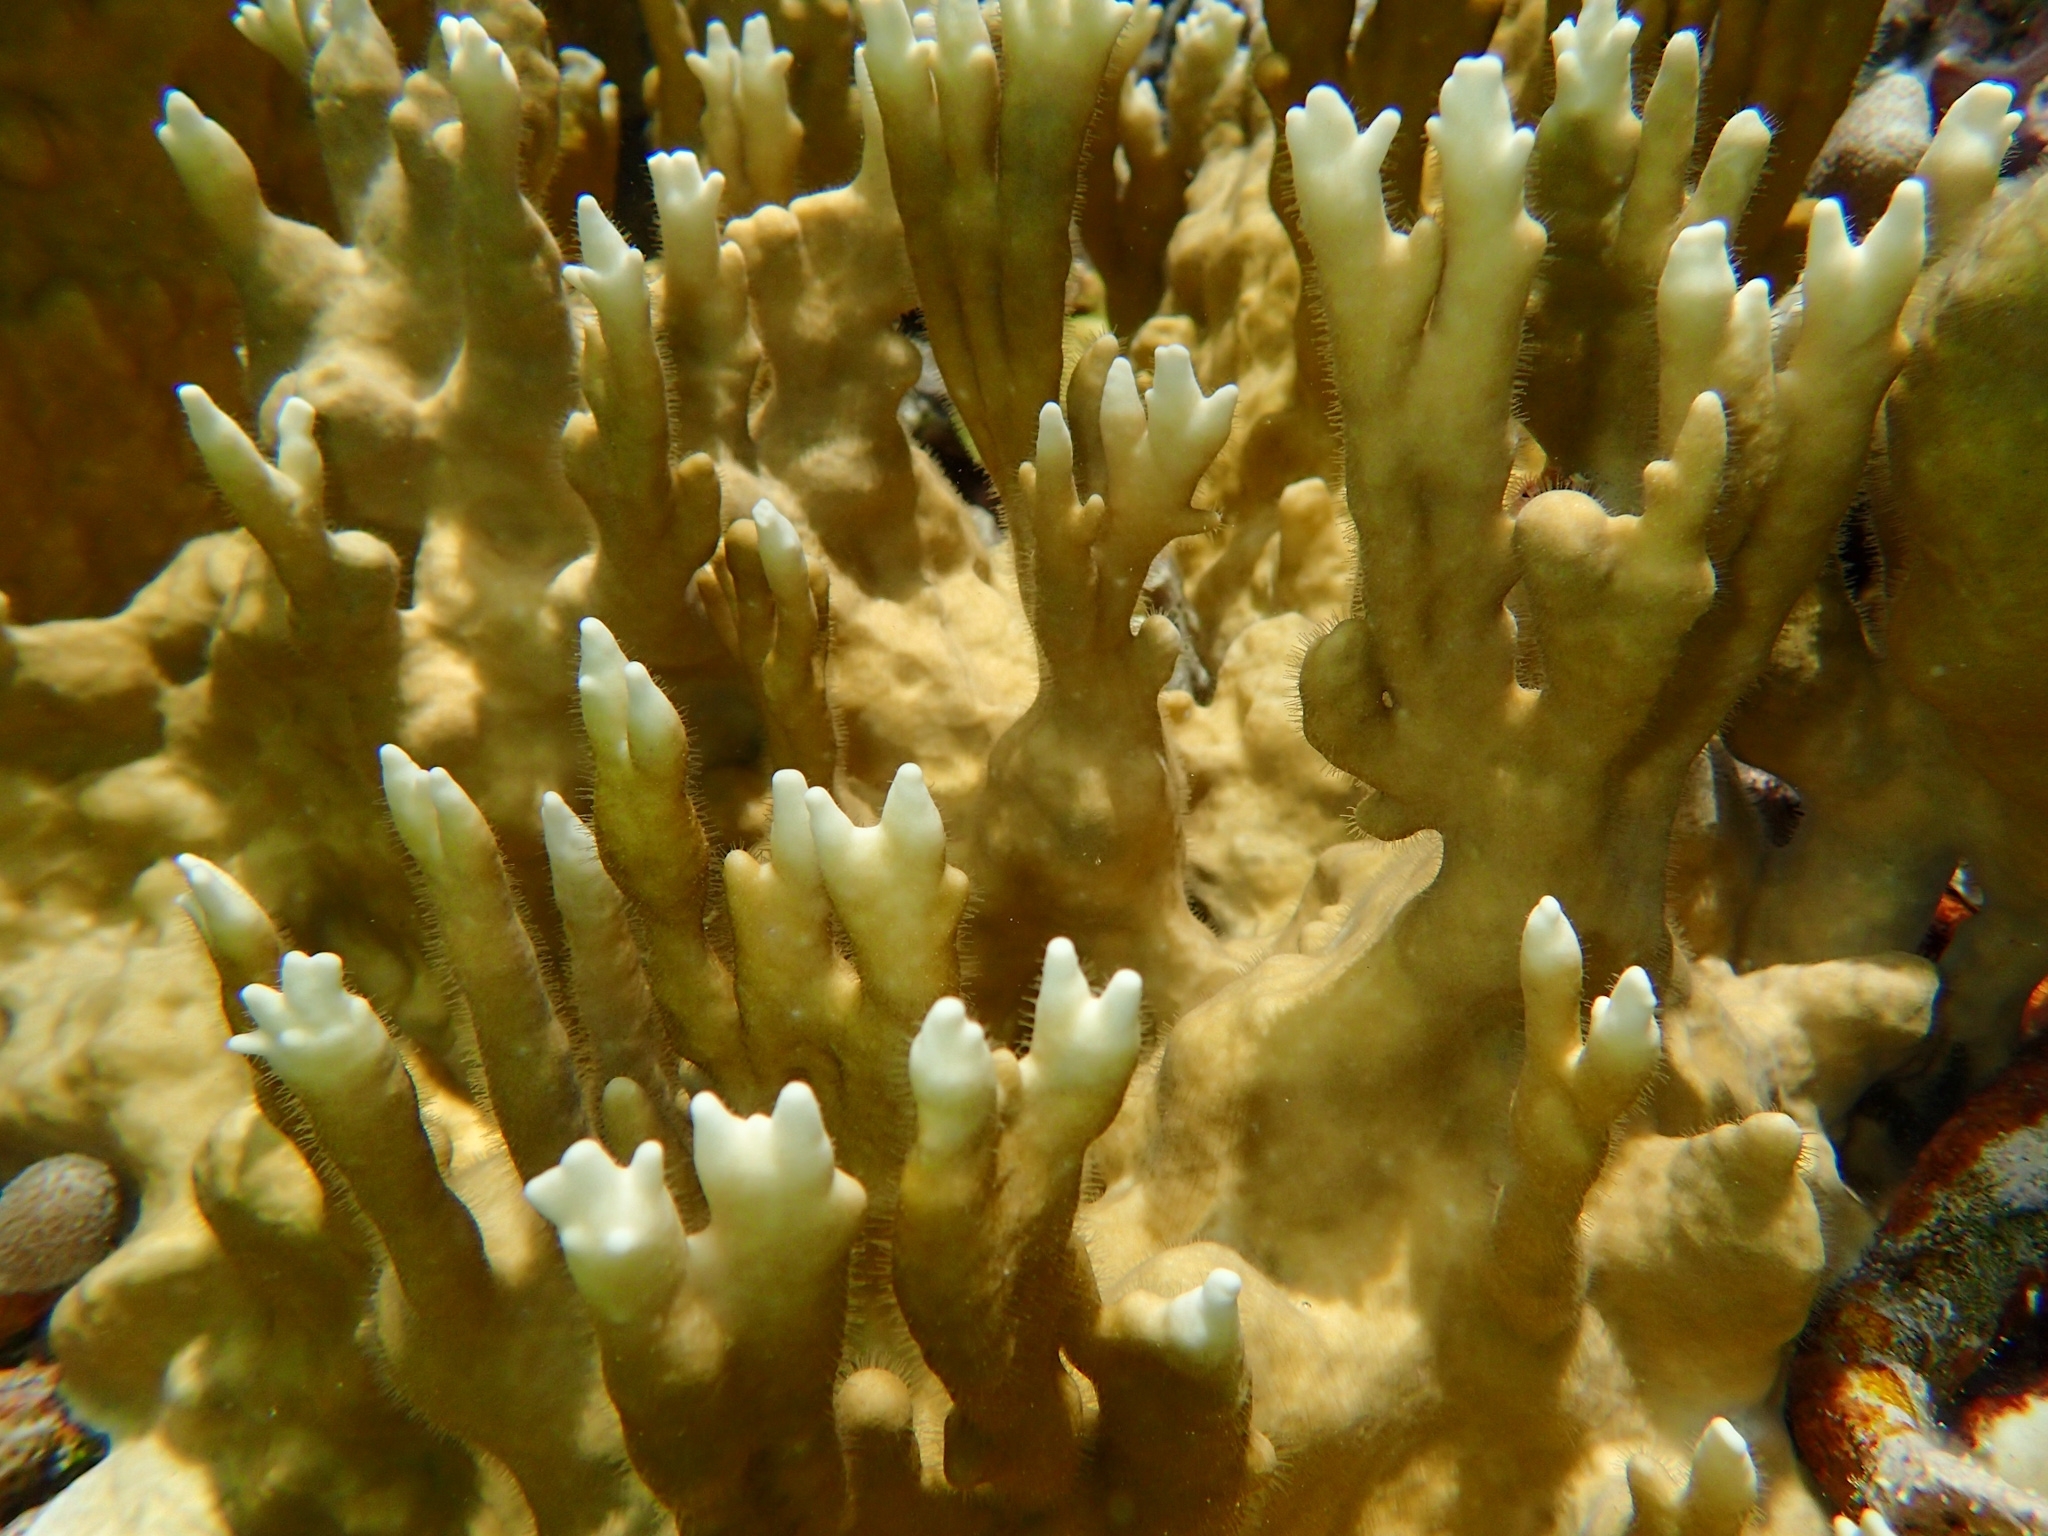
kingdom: Animalia
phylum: Cnidaria
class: Hydrozoa
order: Anthoathecata
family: Milleporidae
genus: Millepora
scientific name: Millepora alcicornis
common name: Branching fire coral
